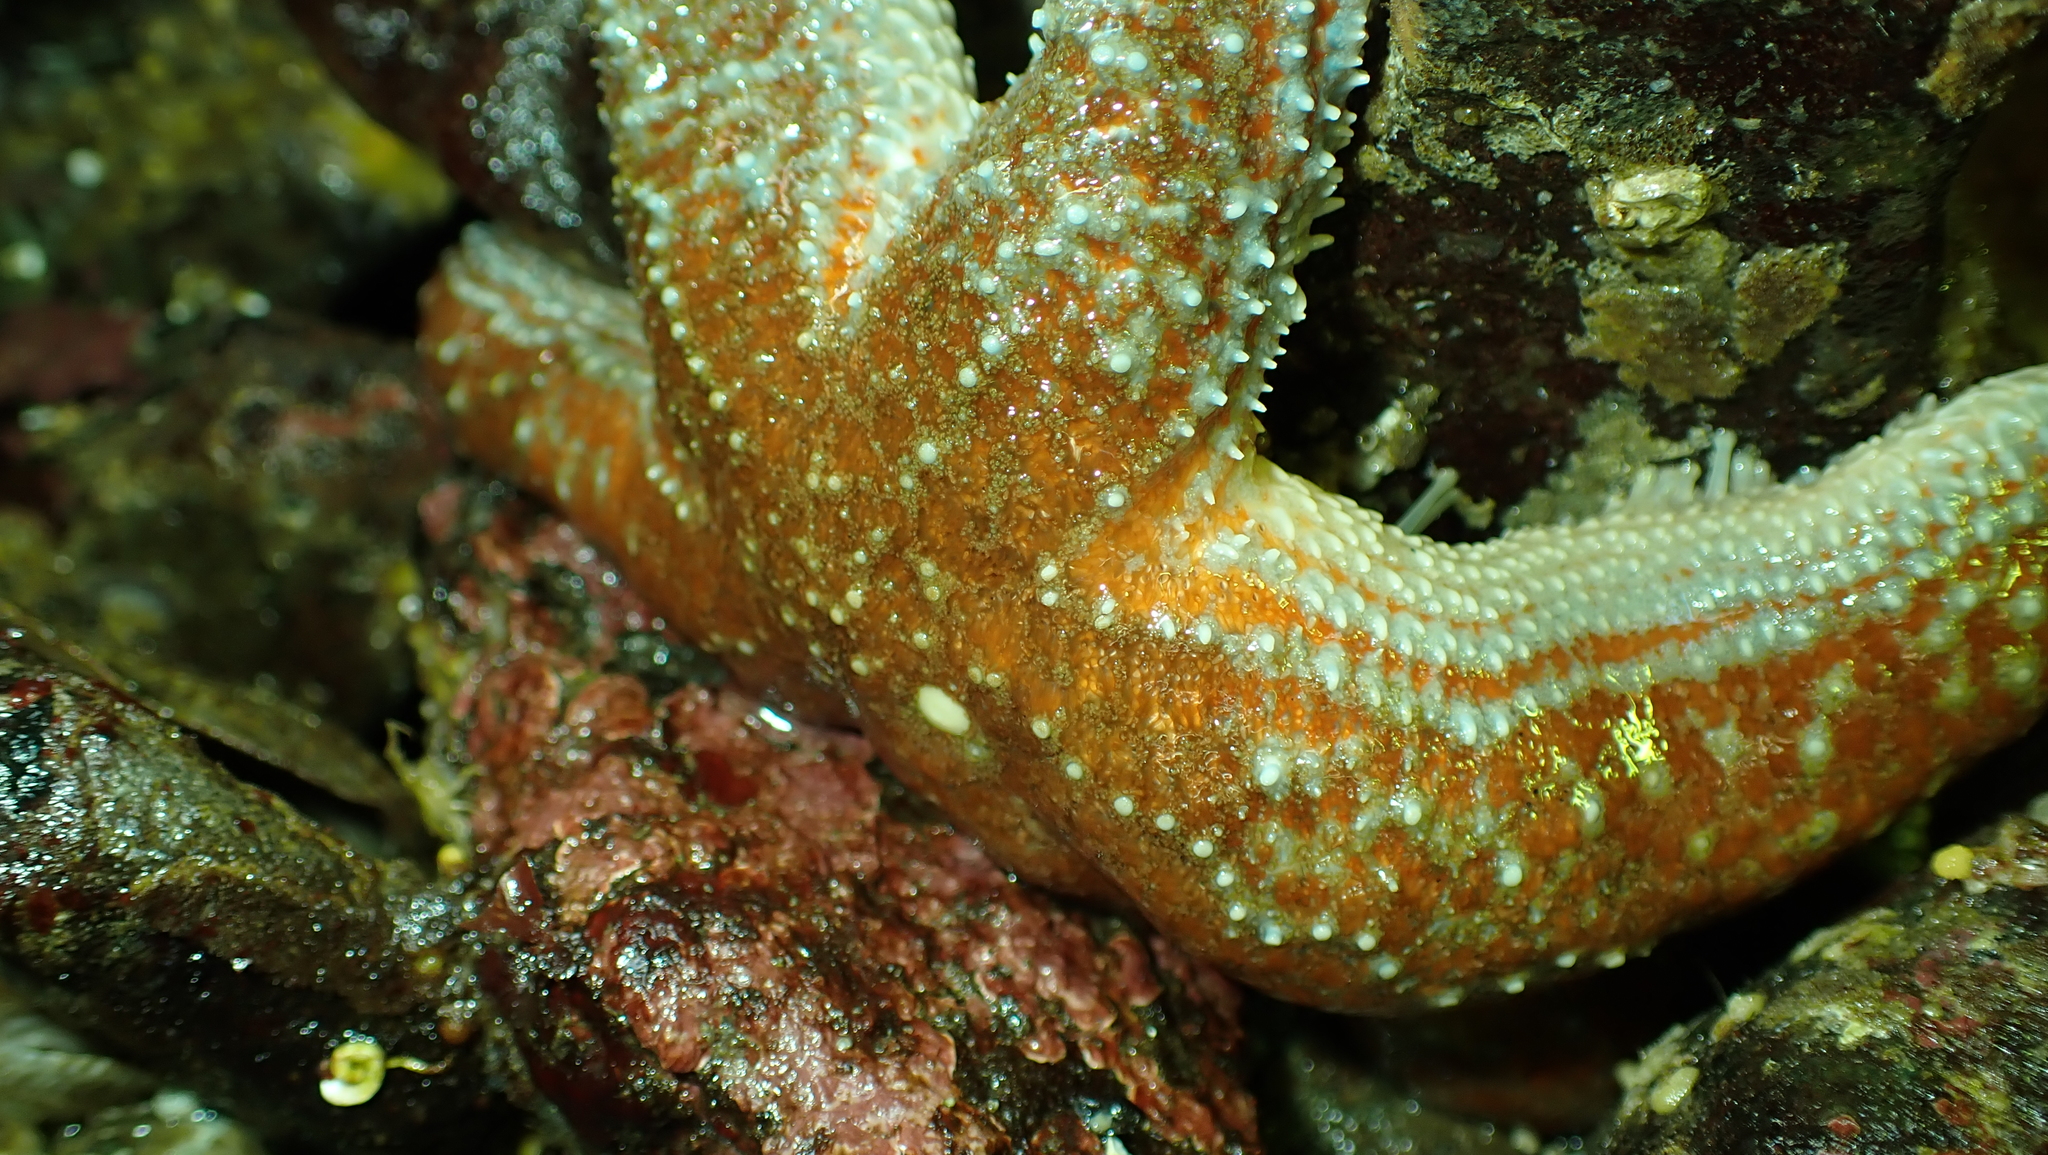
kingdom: Animalia
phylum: Echinodermata
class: Asteroidea
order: Forcipulatida
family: Asteriidae
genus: Evasterias
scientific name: Evasterias troschelii
